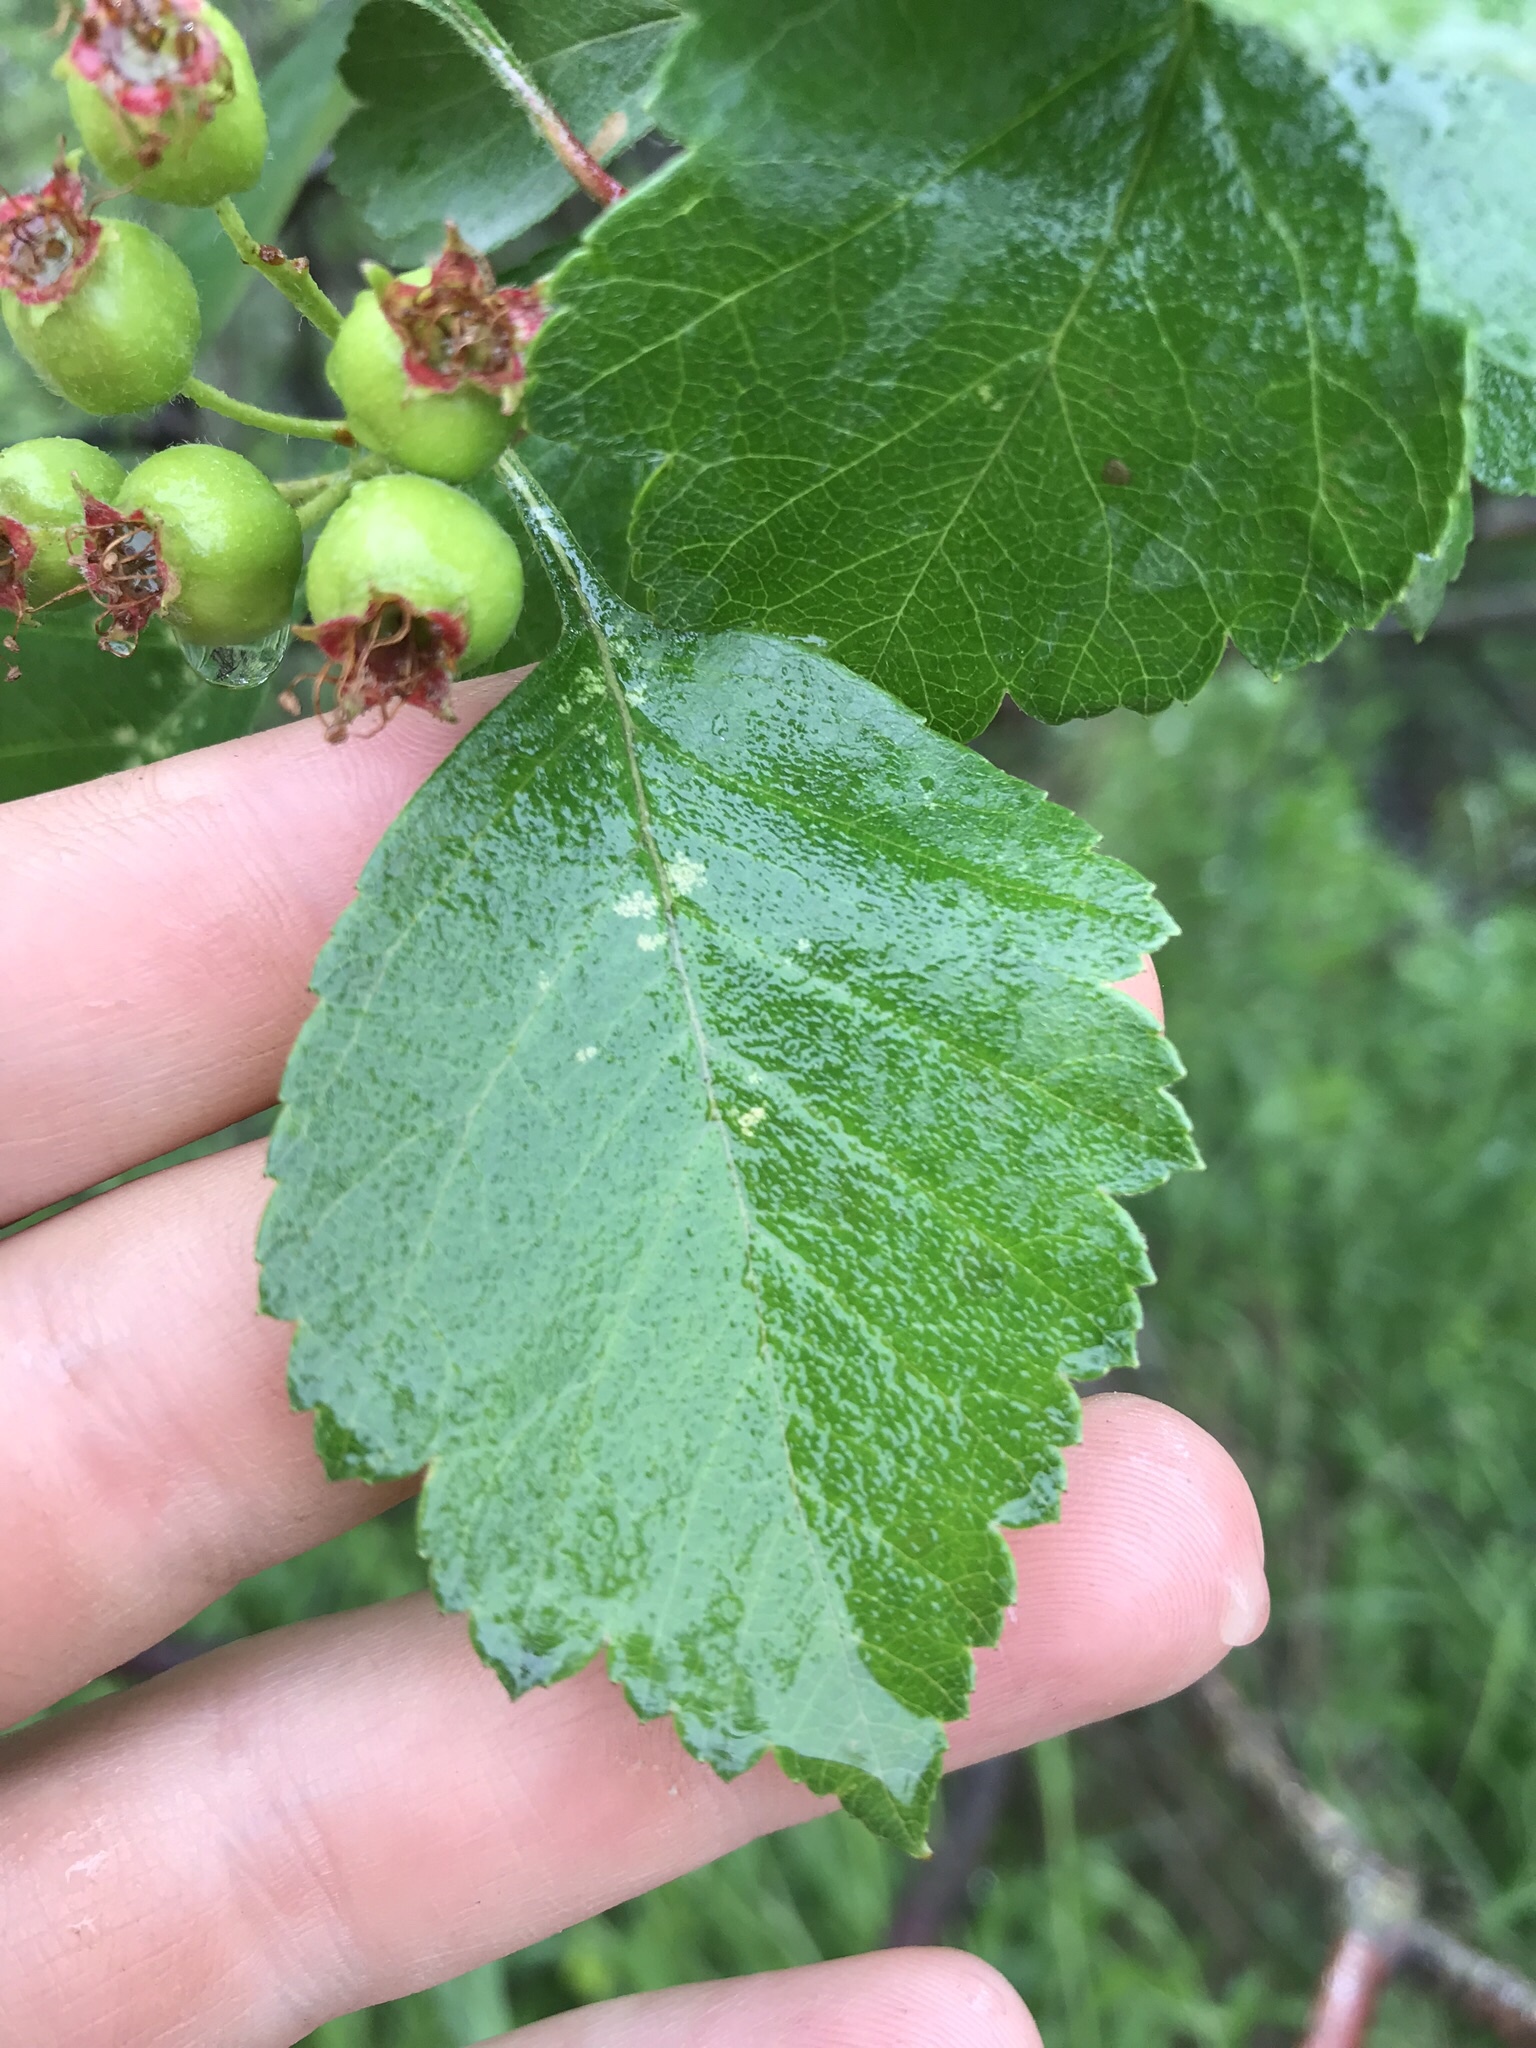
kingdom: Plantae
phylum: Tracheophyta
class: Magnoliopsida
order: Rosales
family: Rosaceae
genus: Crataegus
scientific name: Crataegus douglasii
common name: Black hawthorn
